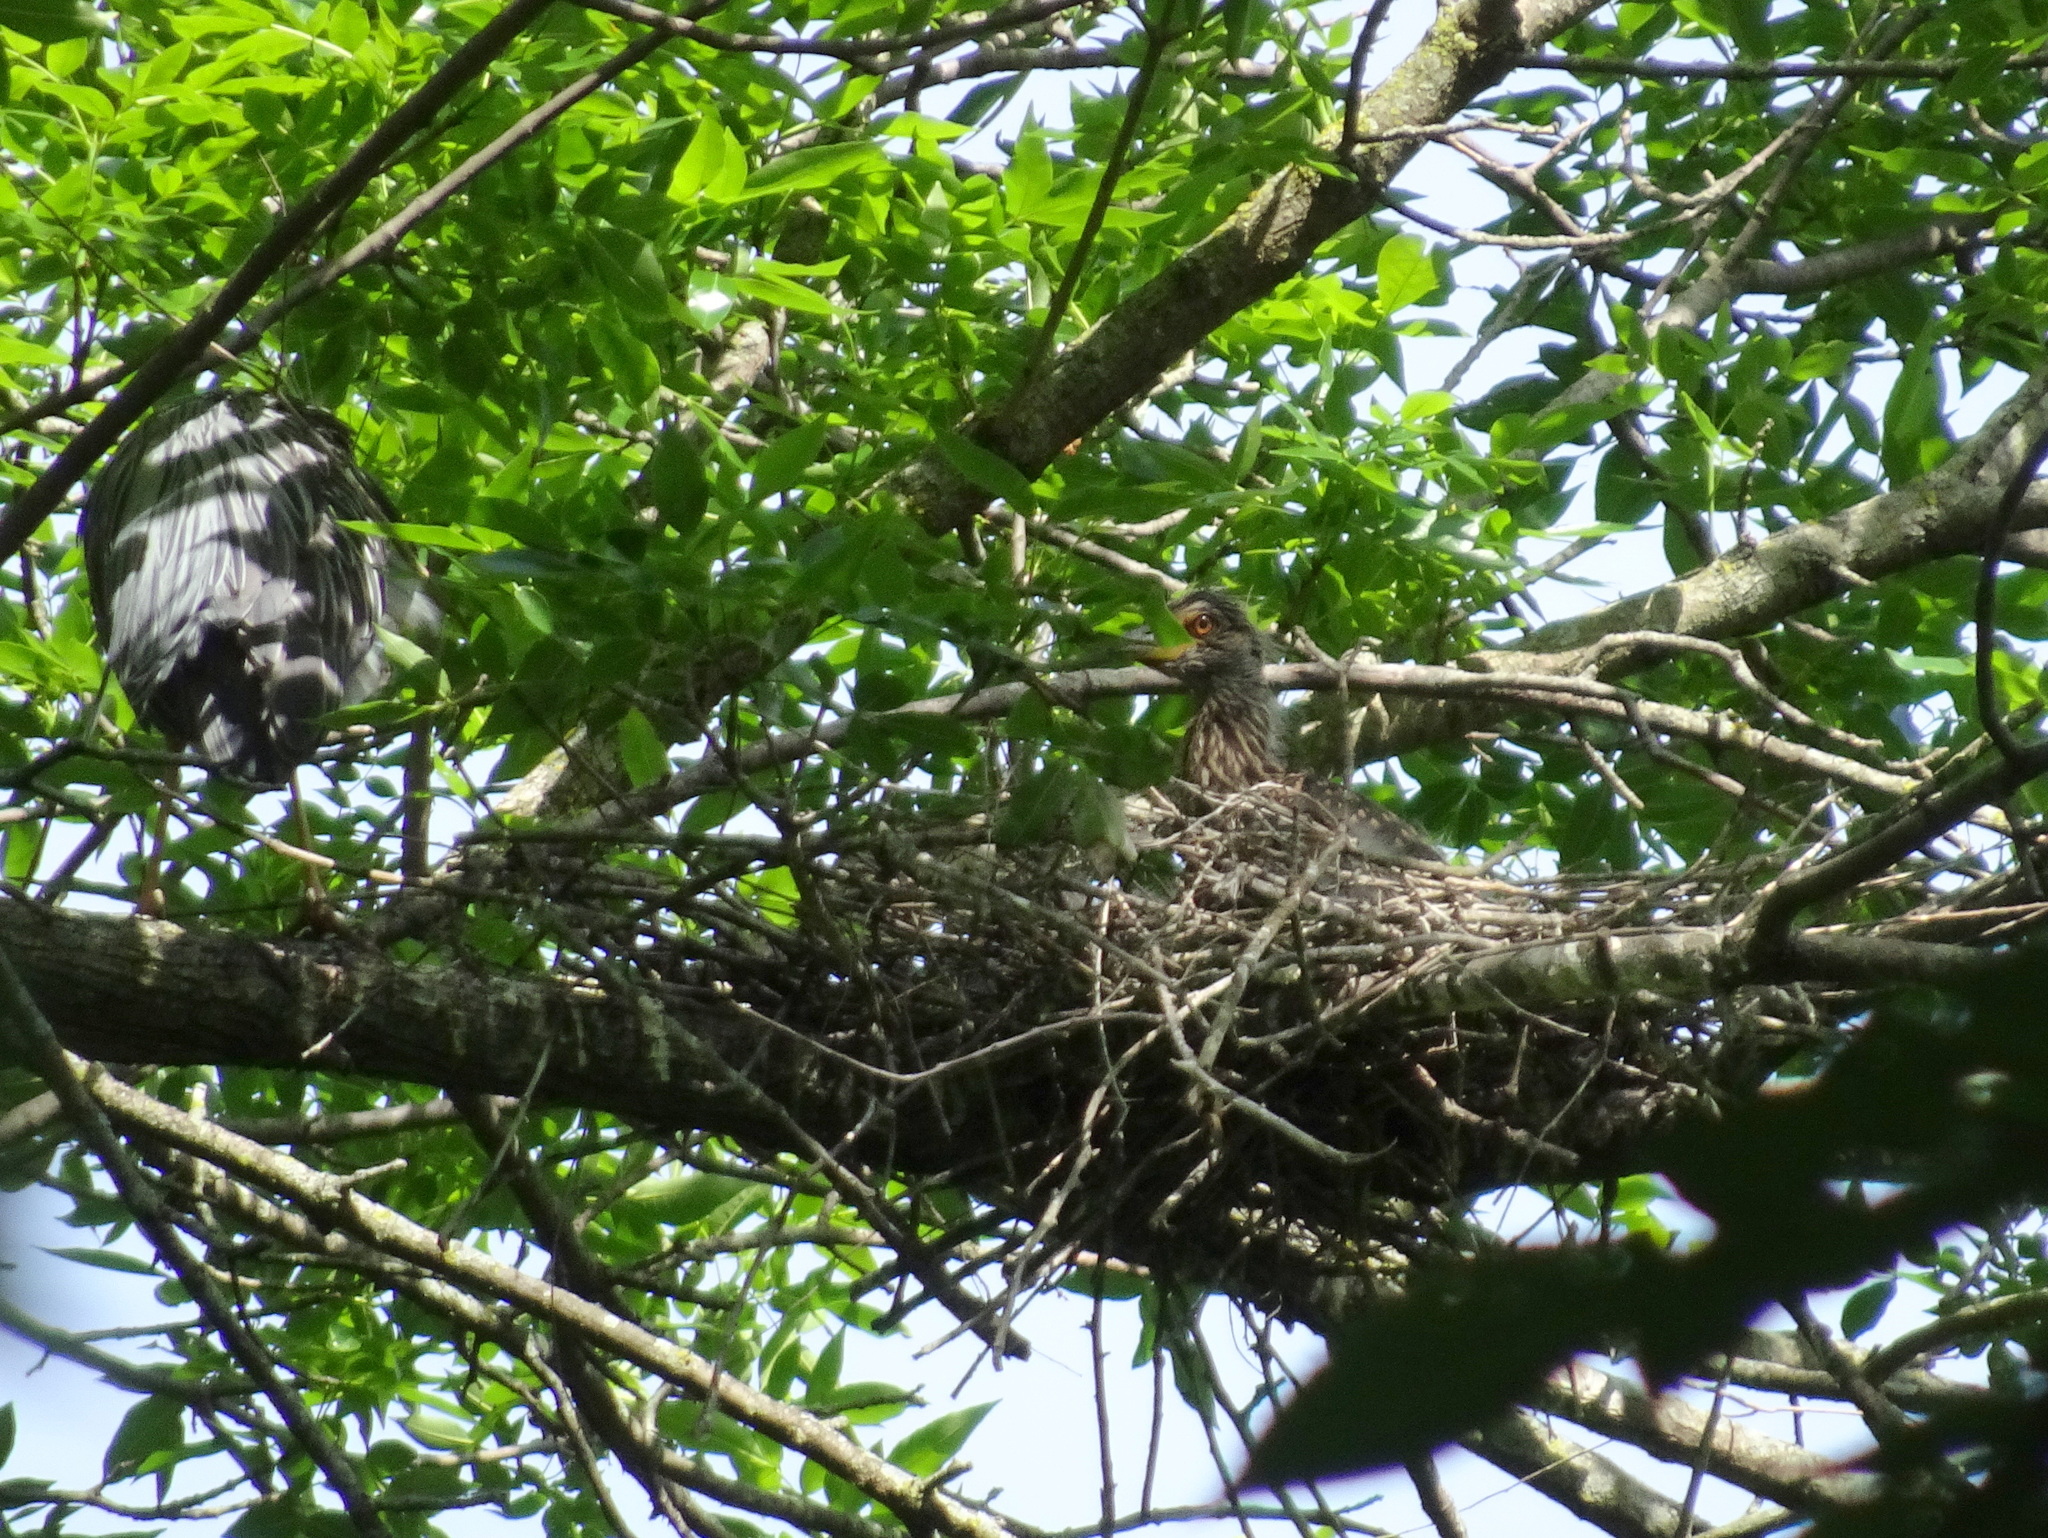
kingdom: Animalia
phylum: Chordata
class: Aves
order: Pelecaniformes
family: Ardeidae
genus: Nyctanassa
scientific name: Nyctanassa violacea
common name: Yellow-crowned night heron
